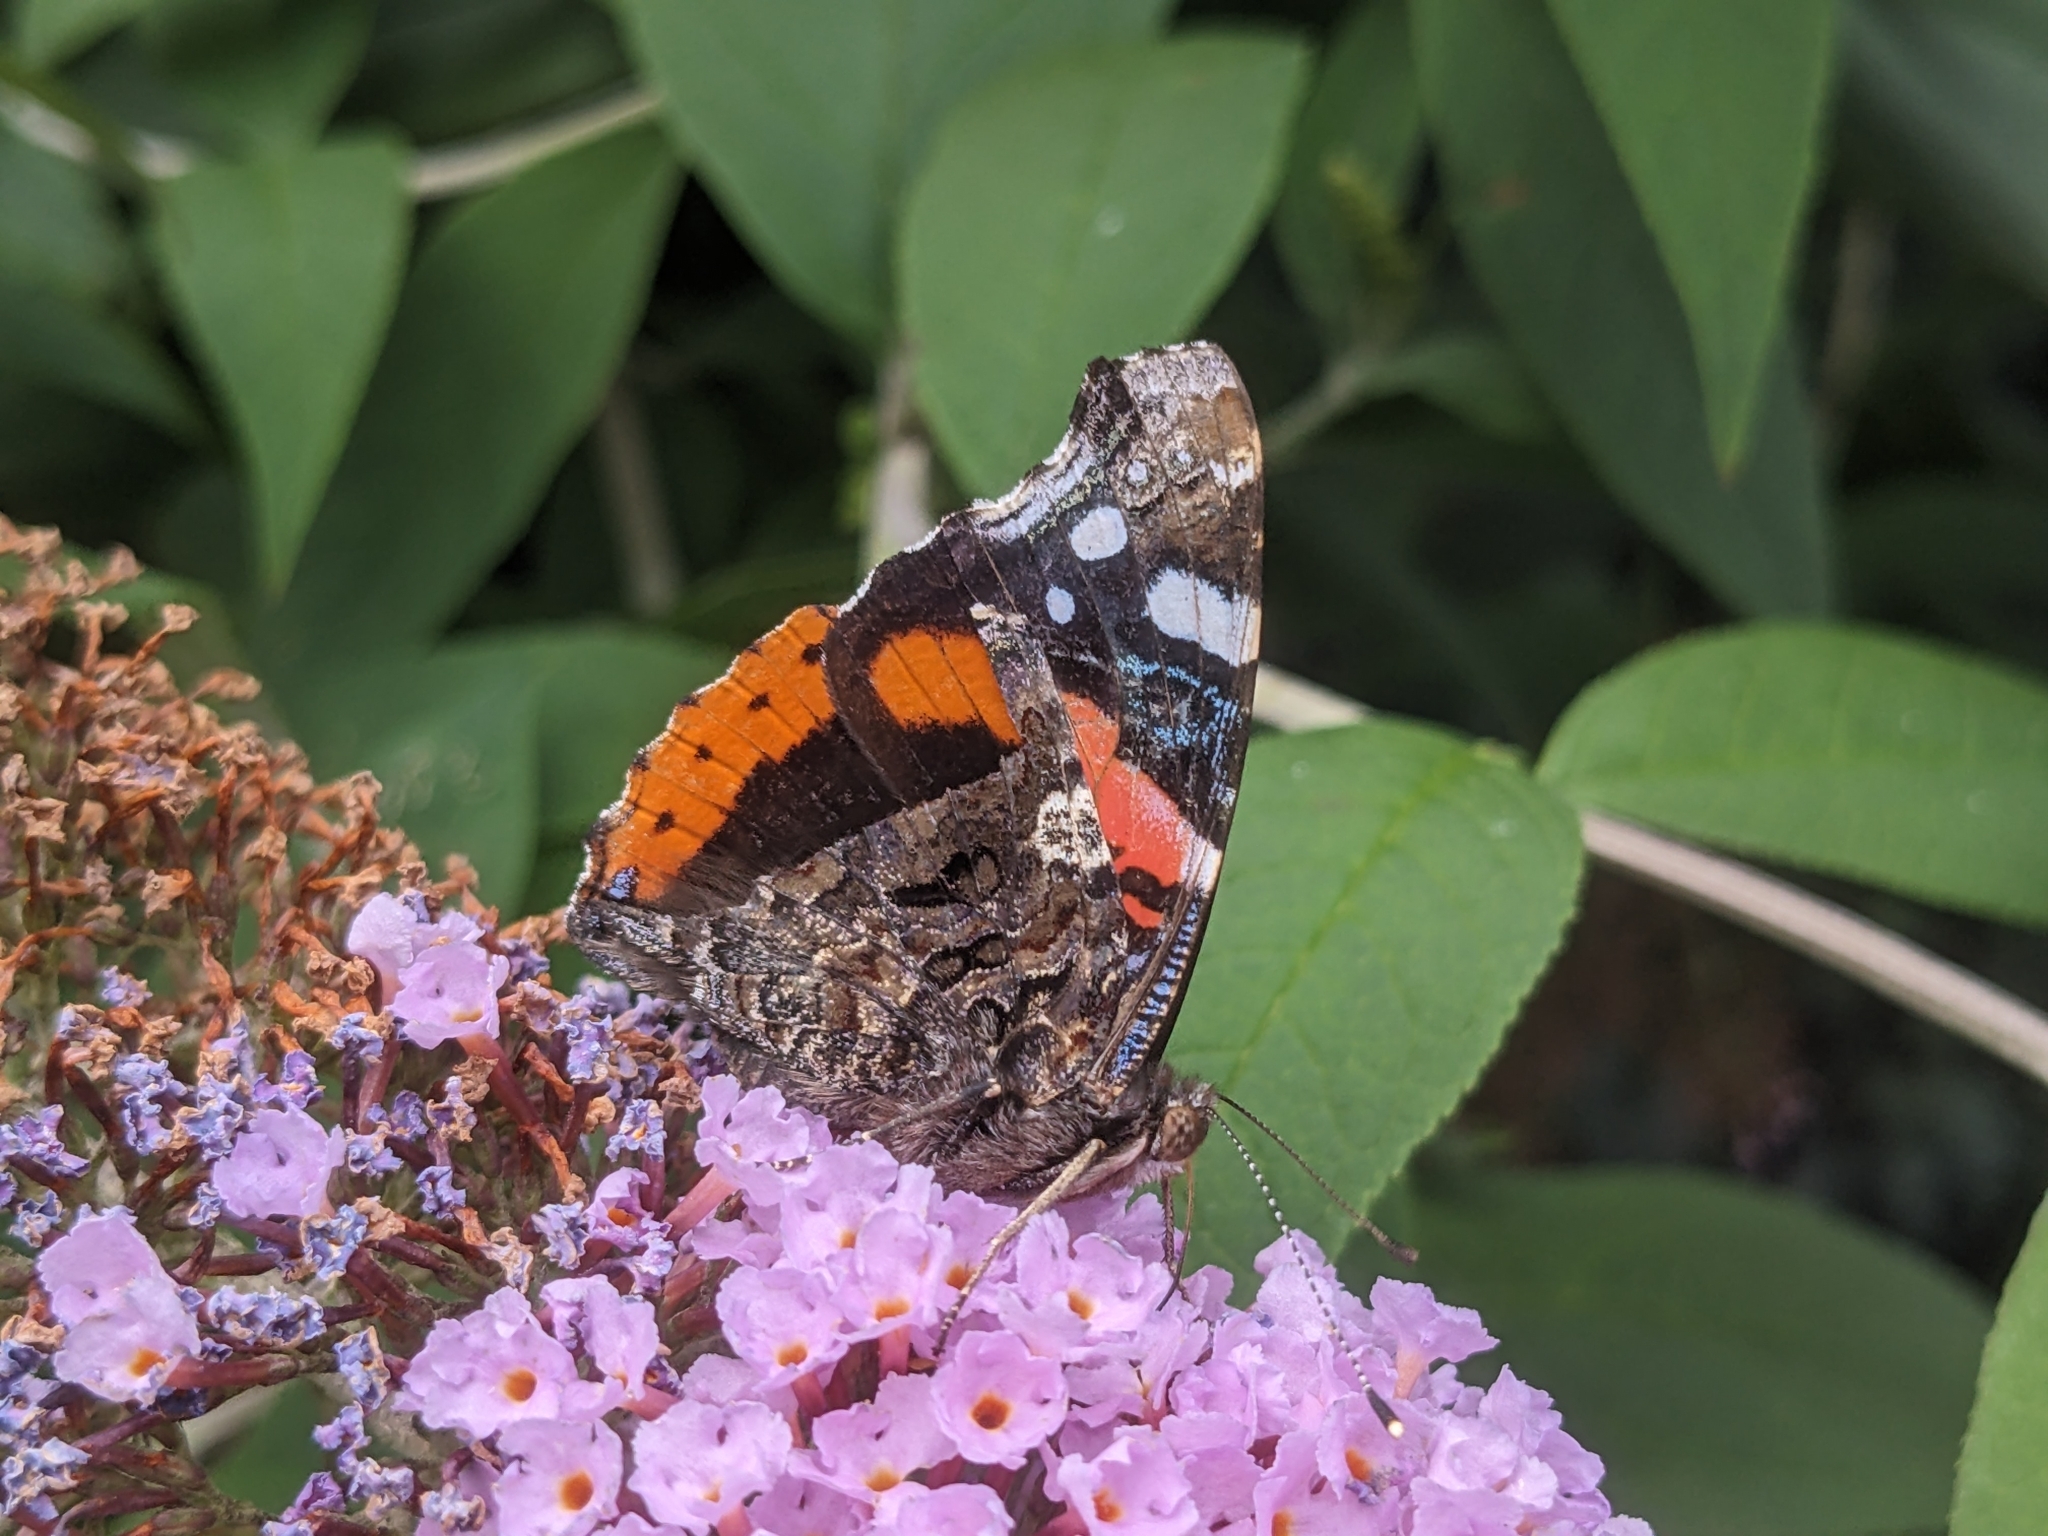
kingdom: Animalia
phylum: Arthropoda
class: Insecta
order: Lepidoptera
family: Nymphalidae
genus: Vanessa
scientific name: Vanessa atalanta
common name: Red admiral
